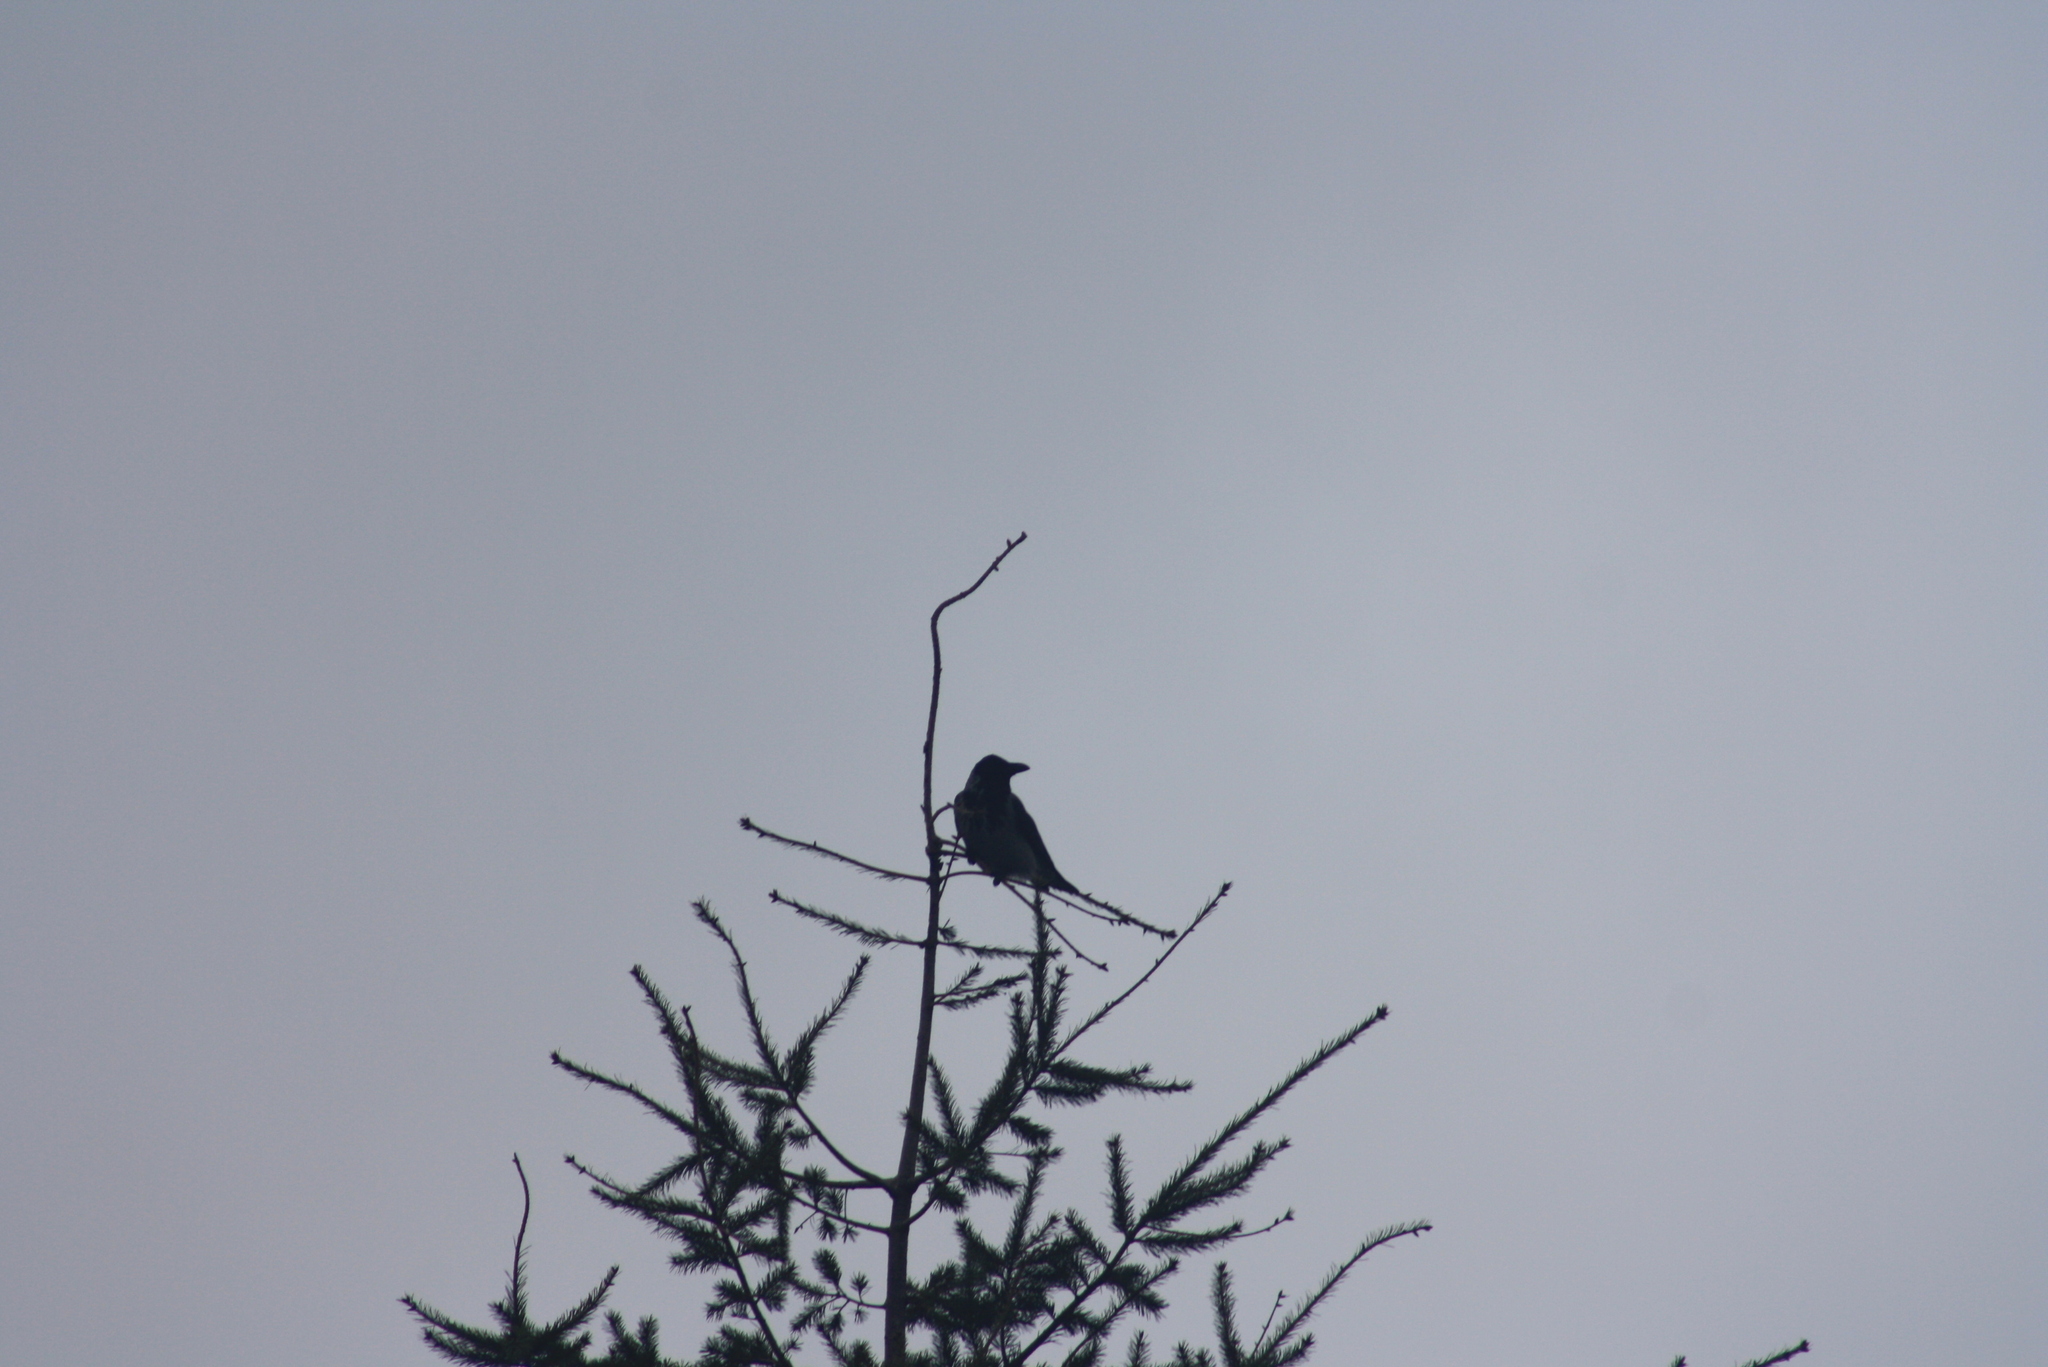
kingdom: Animalia
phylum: Chordata
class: Aves
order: Passeriformes
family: Corvidae
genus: Corvus
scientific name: Corvus cornix
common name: Hooded crow
